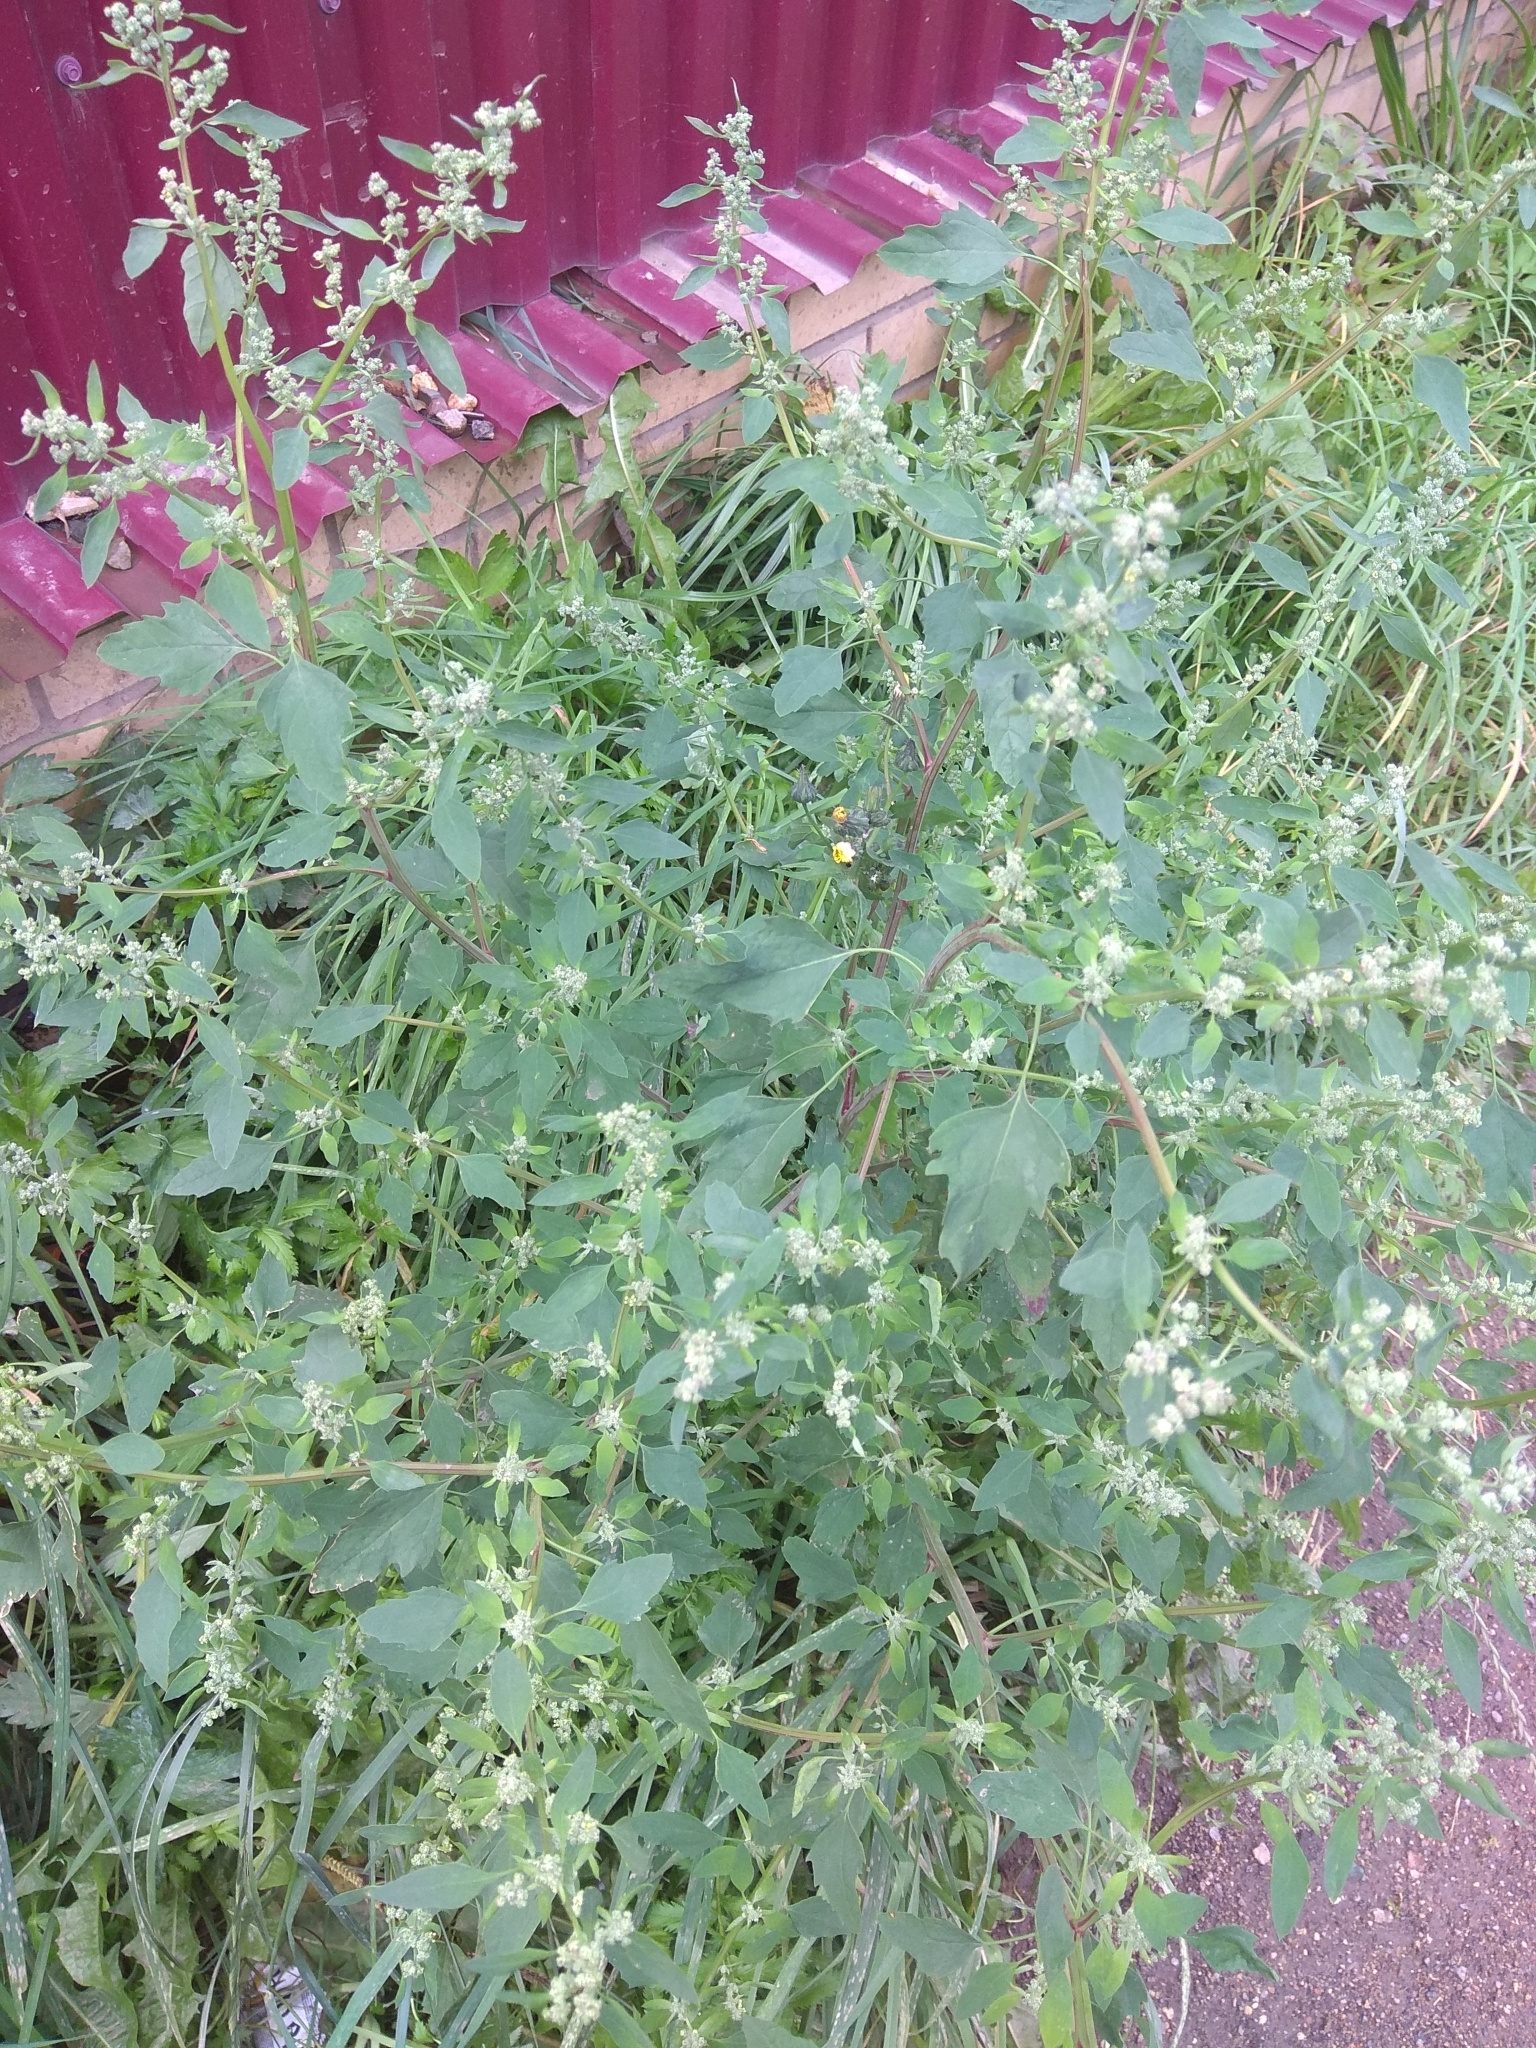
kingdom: Plantae
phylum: Tracheophyta
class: Magnoliopsida
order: Caryophyllales
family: Amaranthaceae
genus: Chenopodium
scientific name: Chenopodium album
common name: Fat-hen
